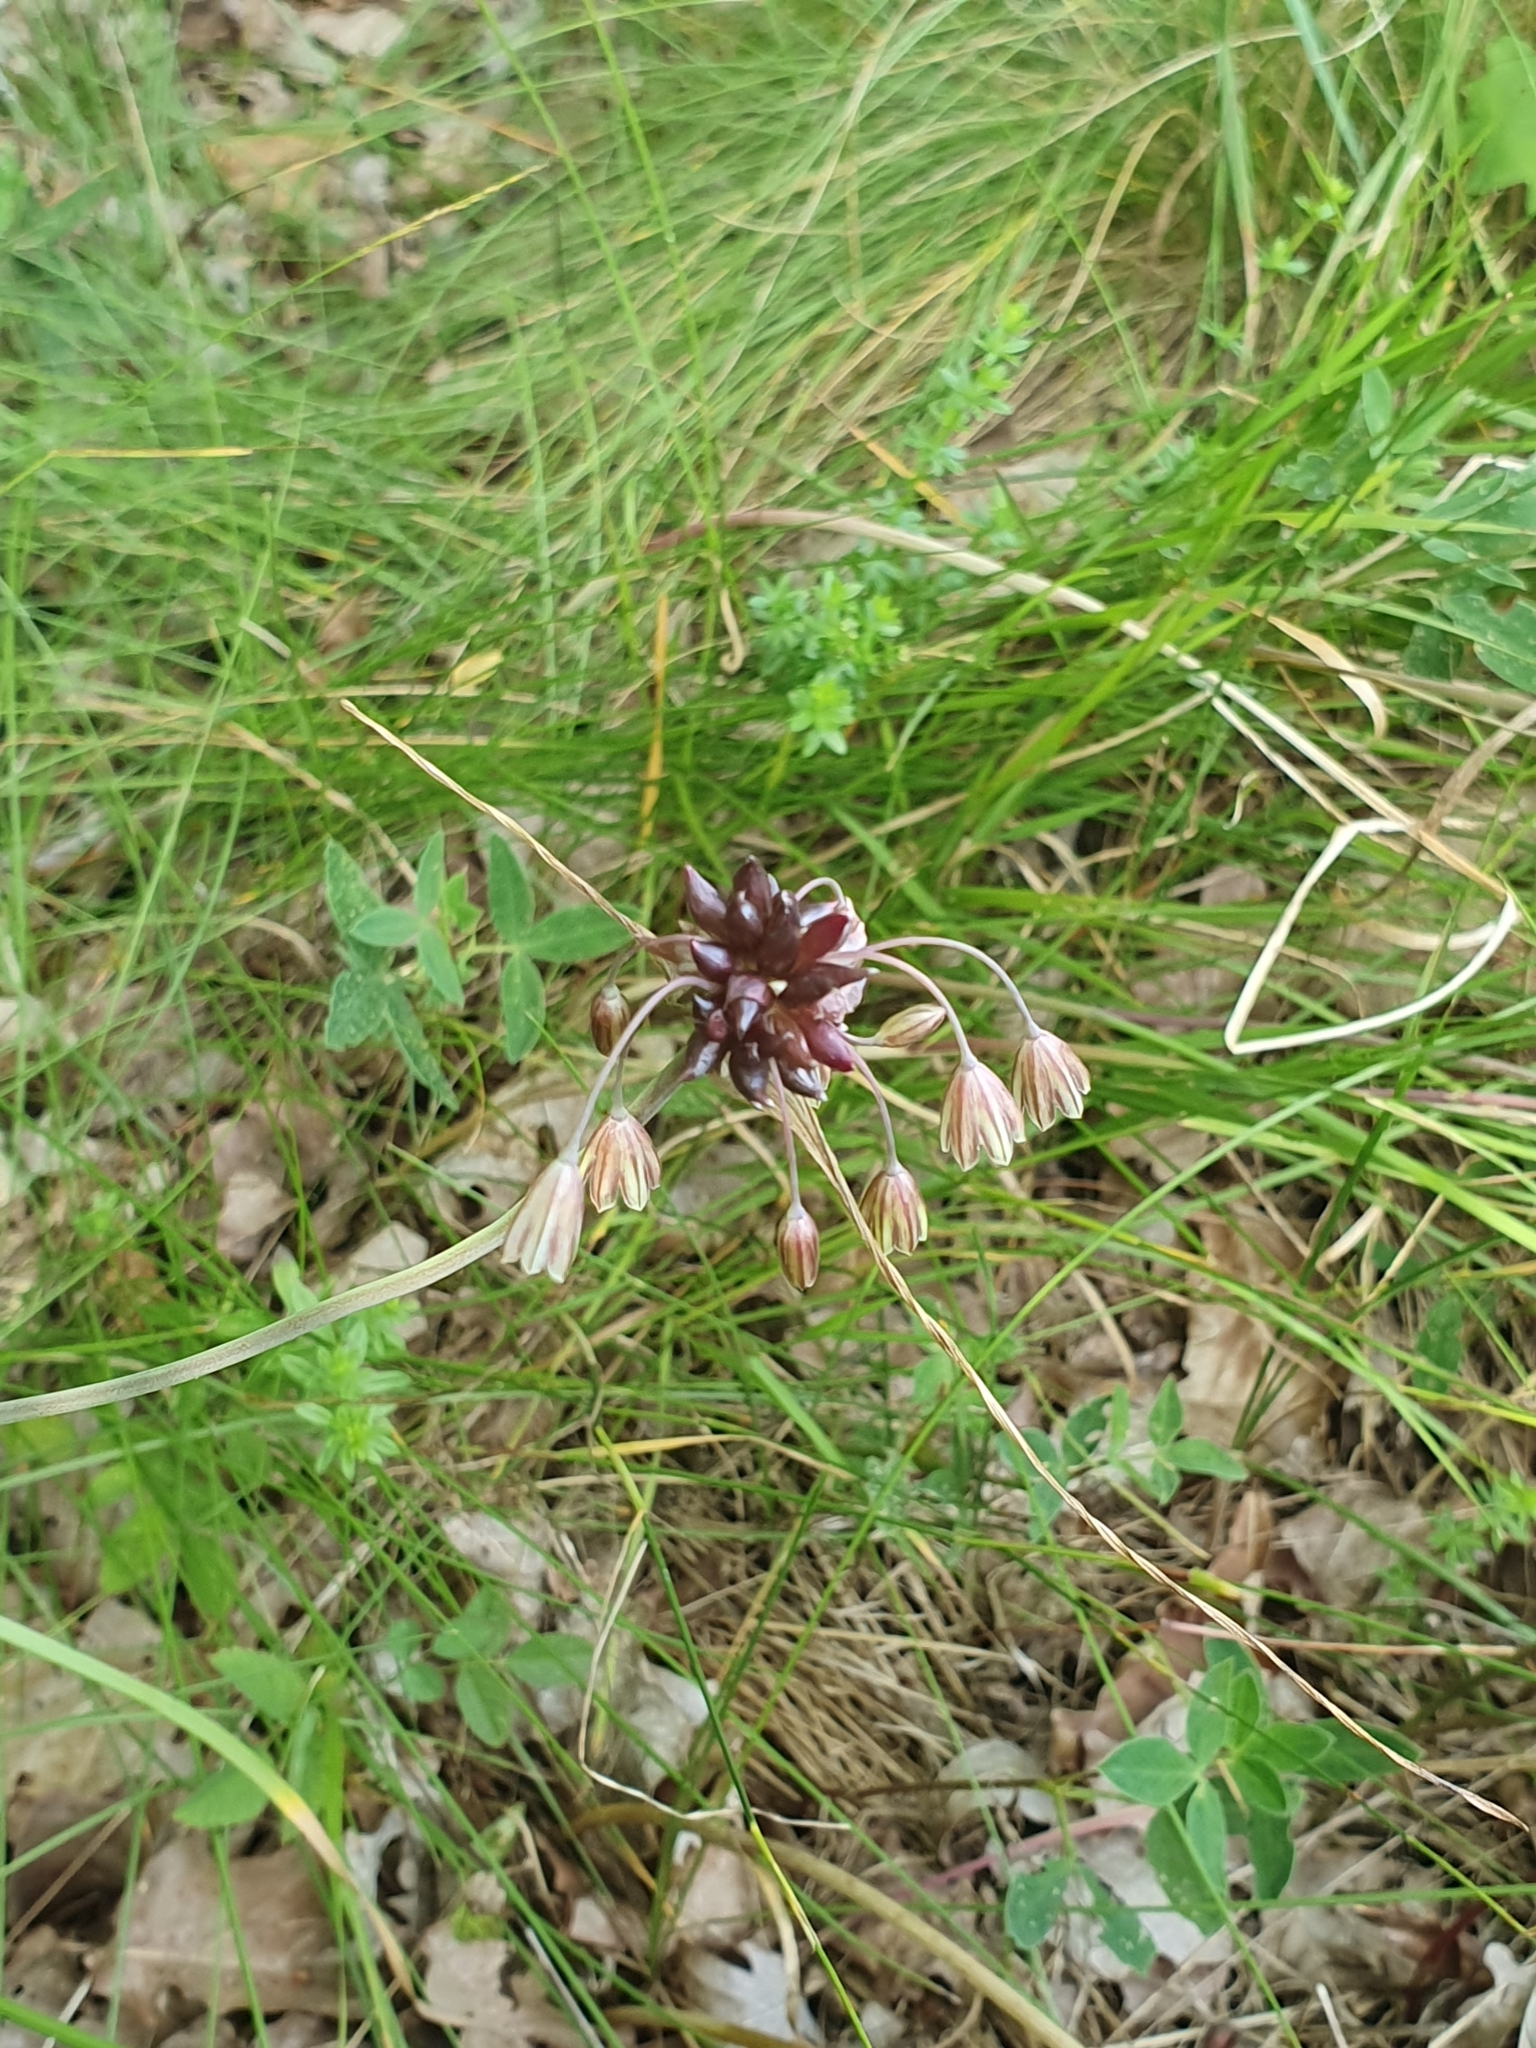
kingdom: Plantae
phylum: Tracheophyta
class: Liliopsida
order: Asparagales
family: Amaryllidaceae
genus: Allium
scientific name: Allium oleraceum
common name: Field garlic
